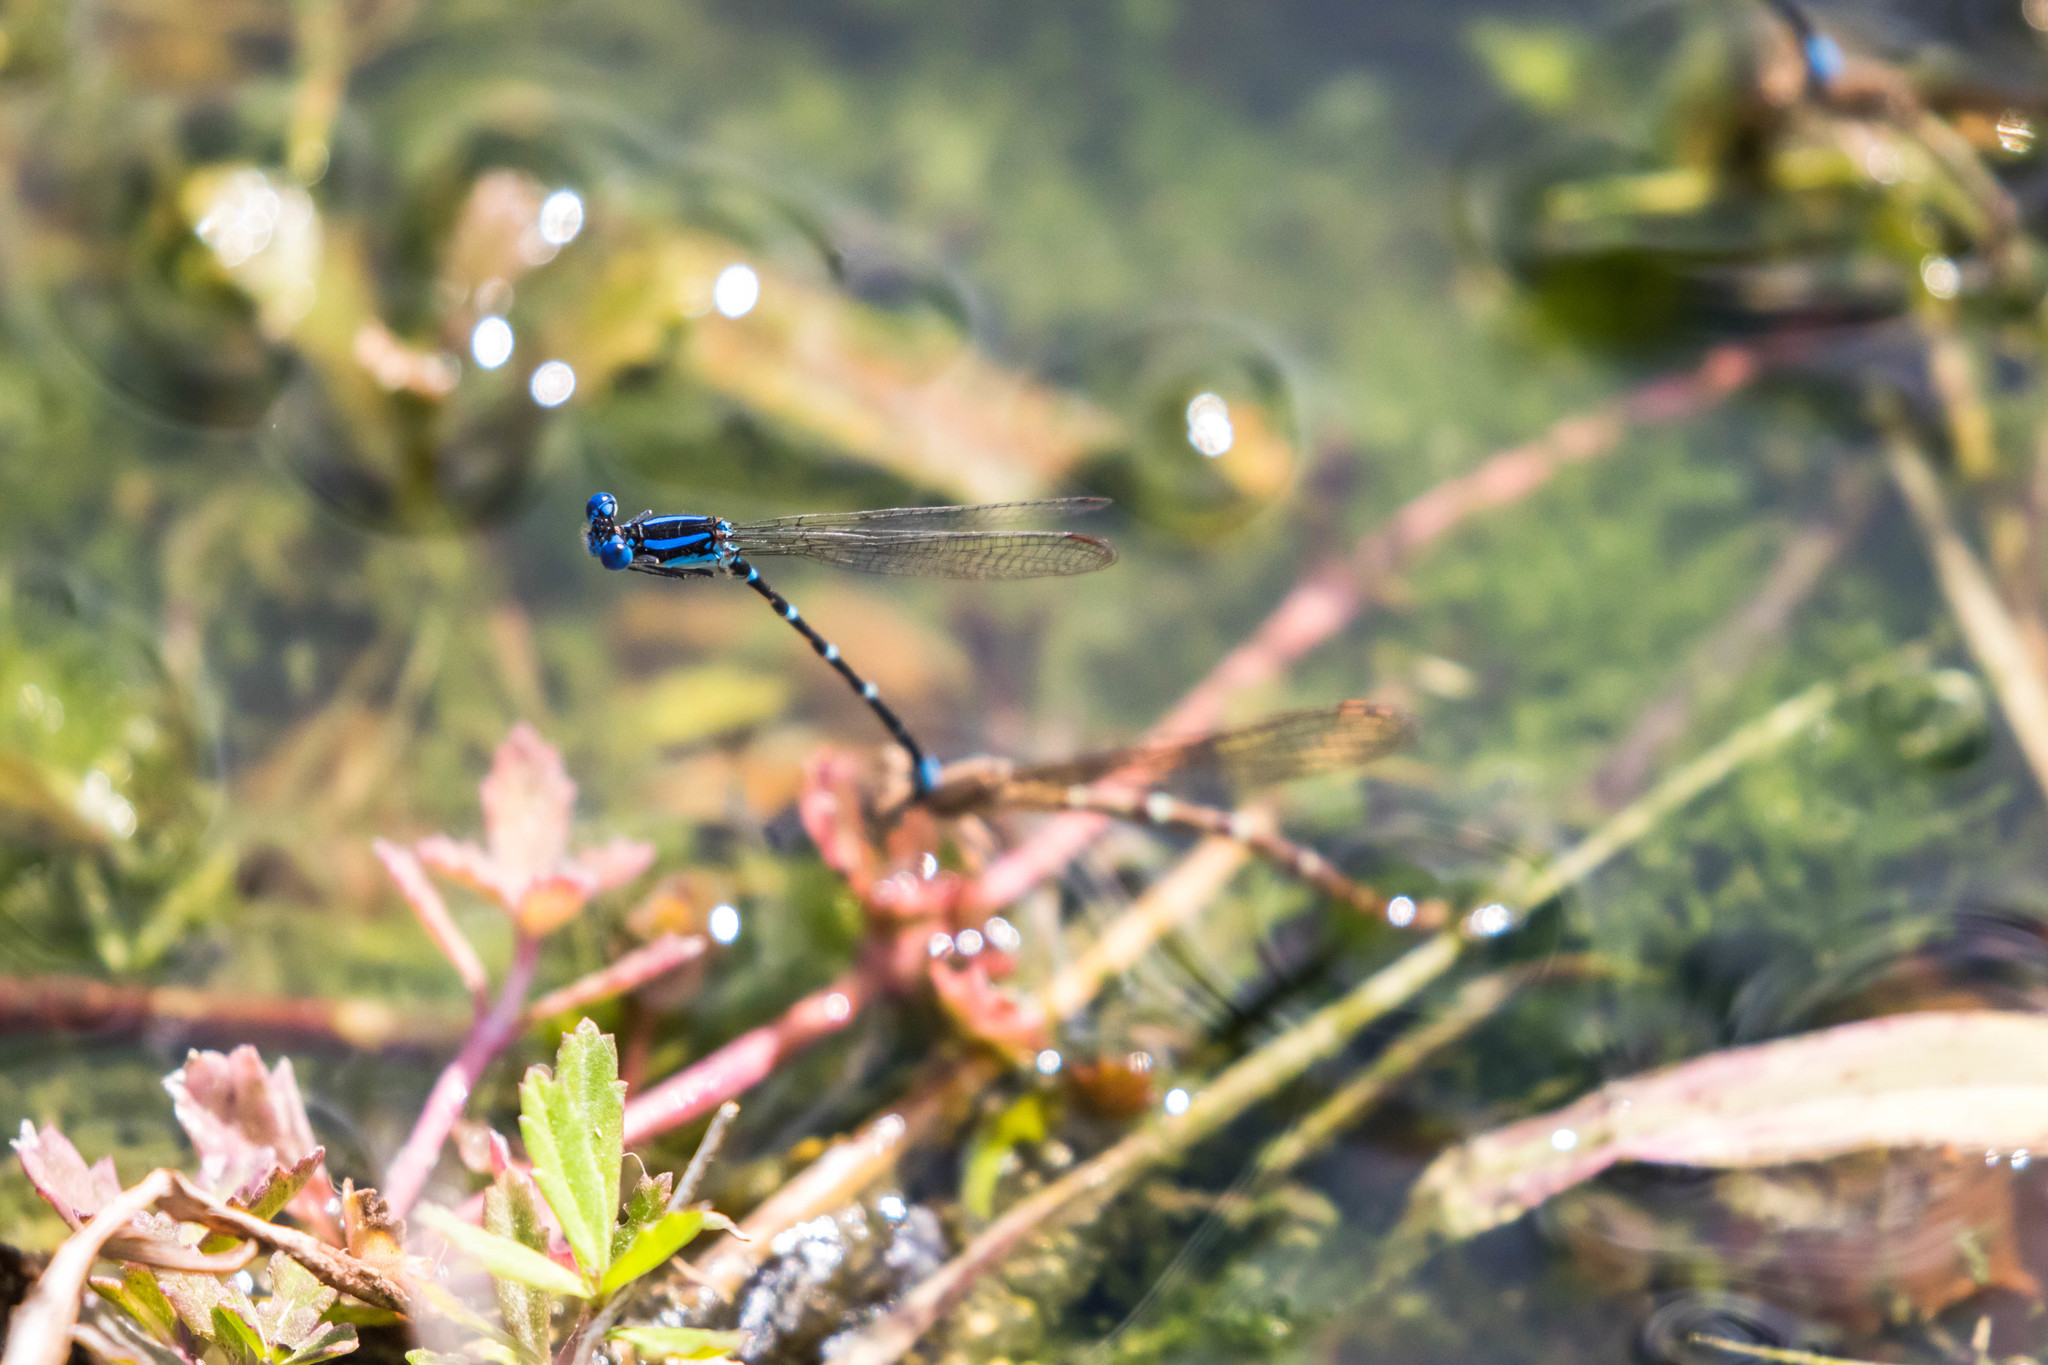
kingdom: Animalia
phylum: Arthropoda
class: Insecta
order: Odonata
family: Coenagrionidae
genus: Argia
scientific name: Argia sedula
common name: Blue-ringed dancer
